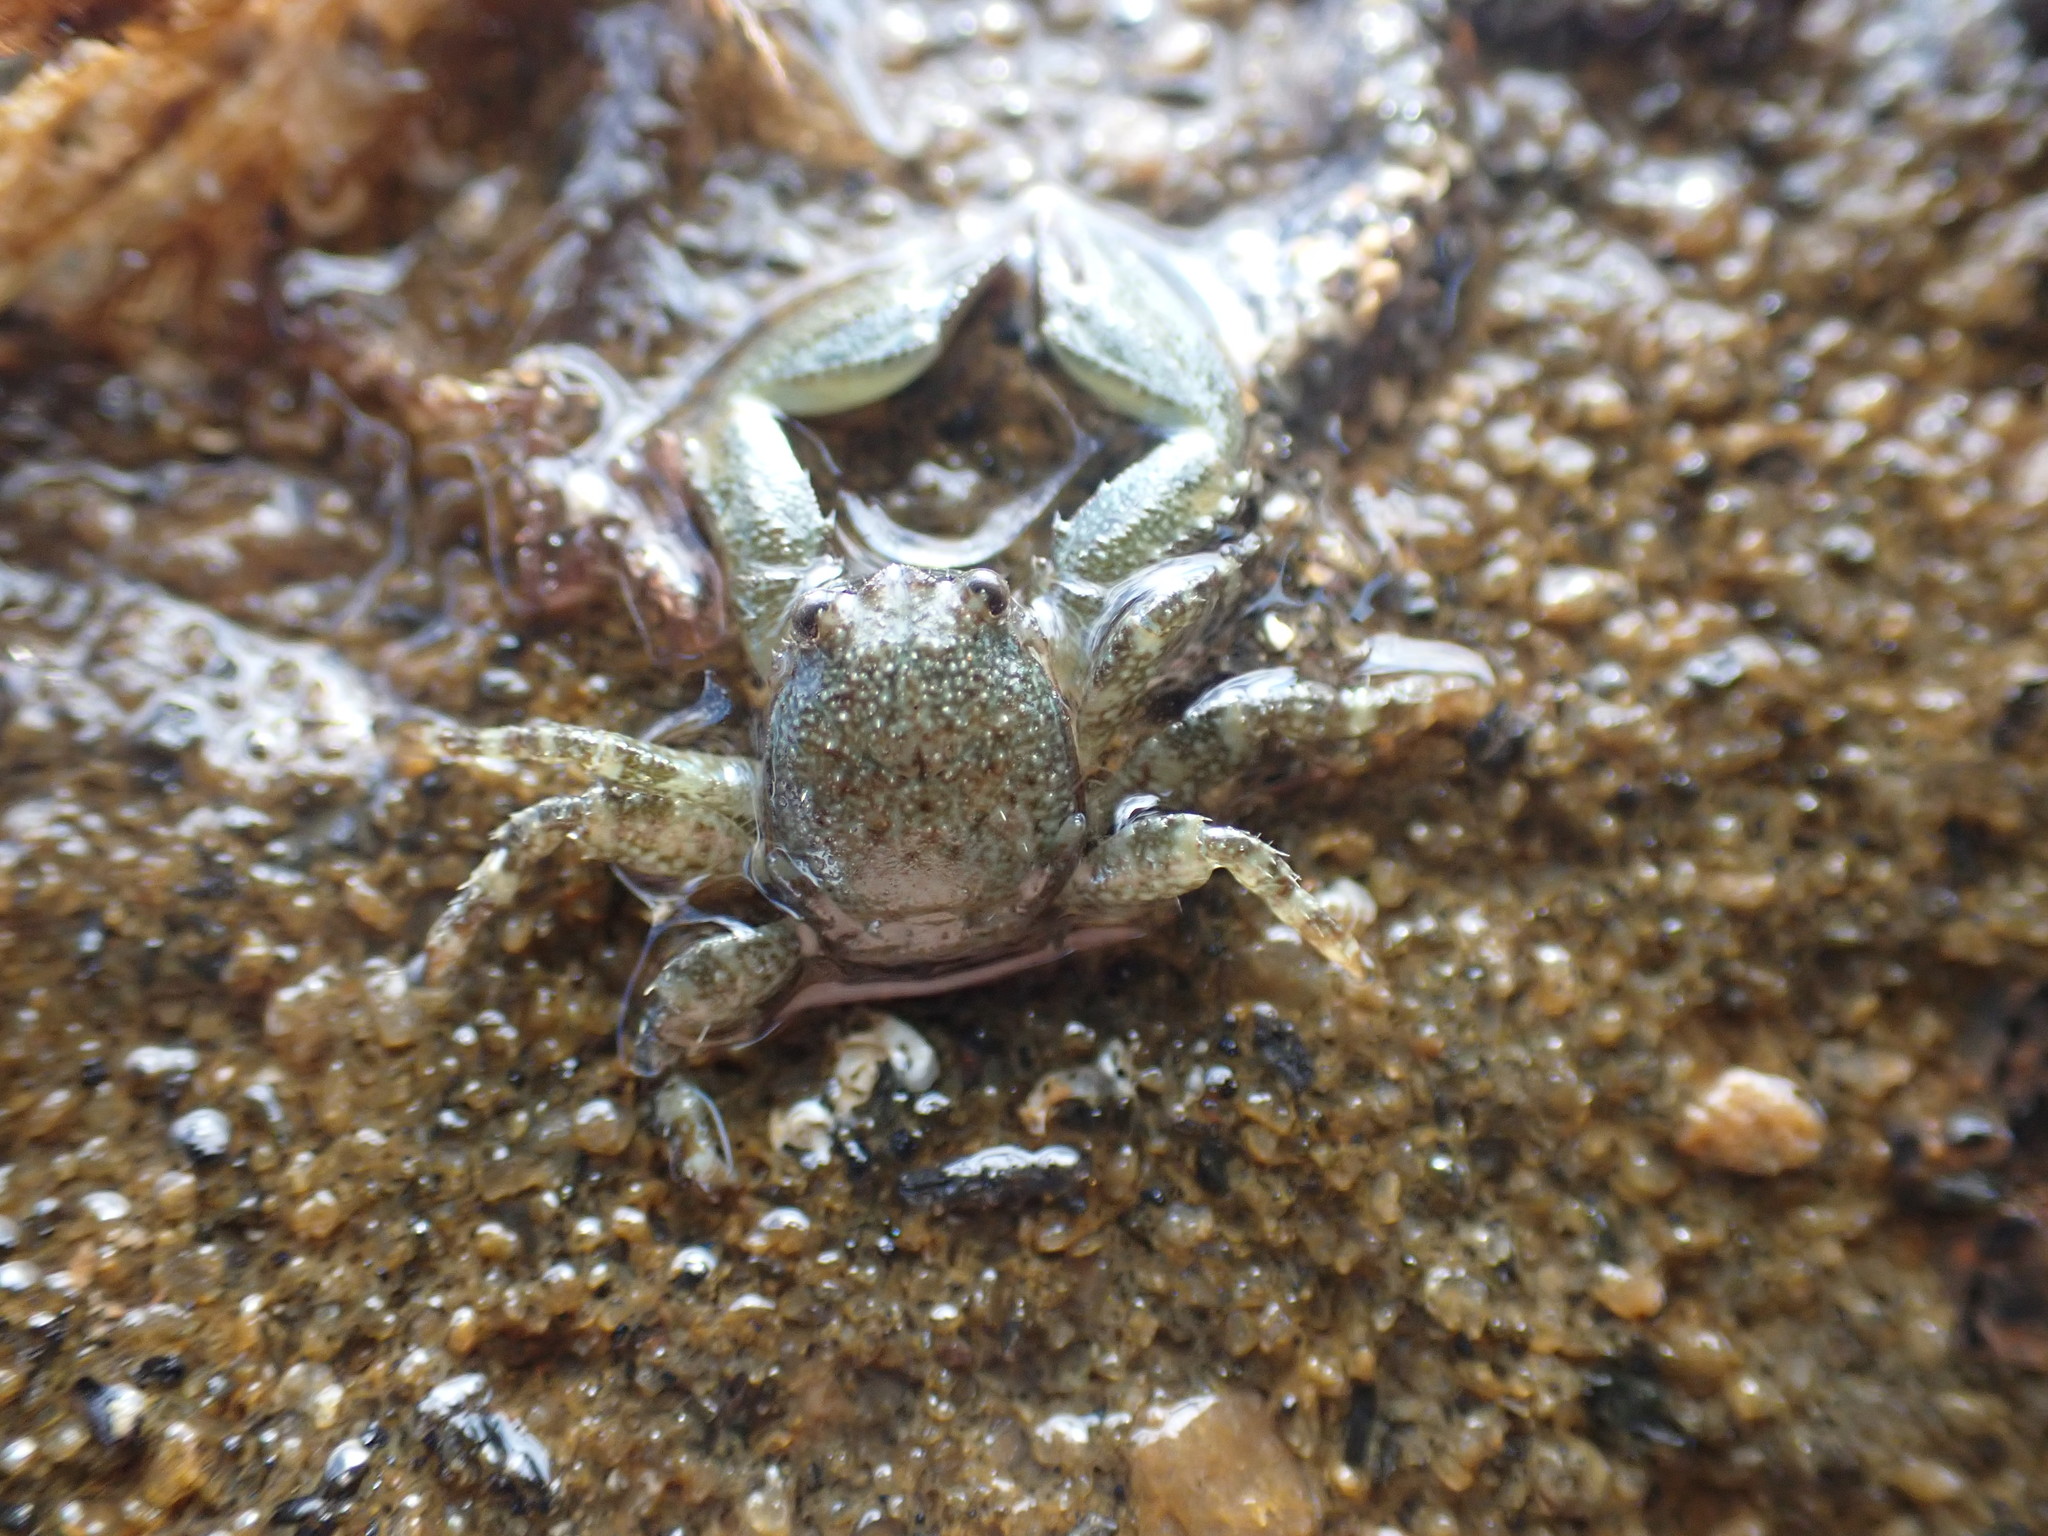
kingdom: Animalia
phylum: Arthropoda
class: Malacostraca
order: Decapoda
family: Porcellanidae
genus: Petrolisthes
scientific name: Petrolisthes elongatus
